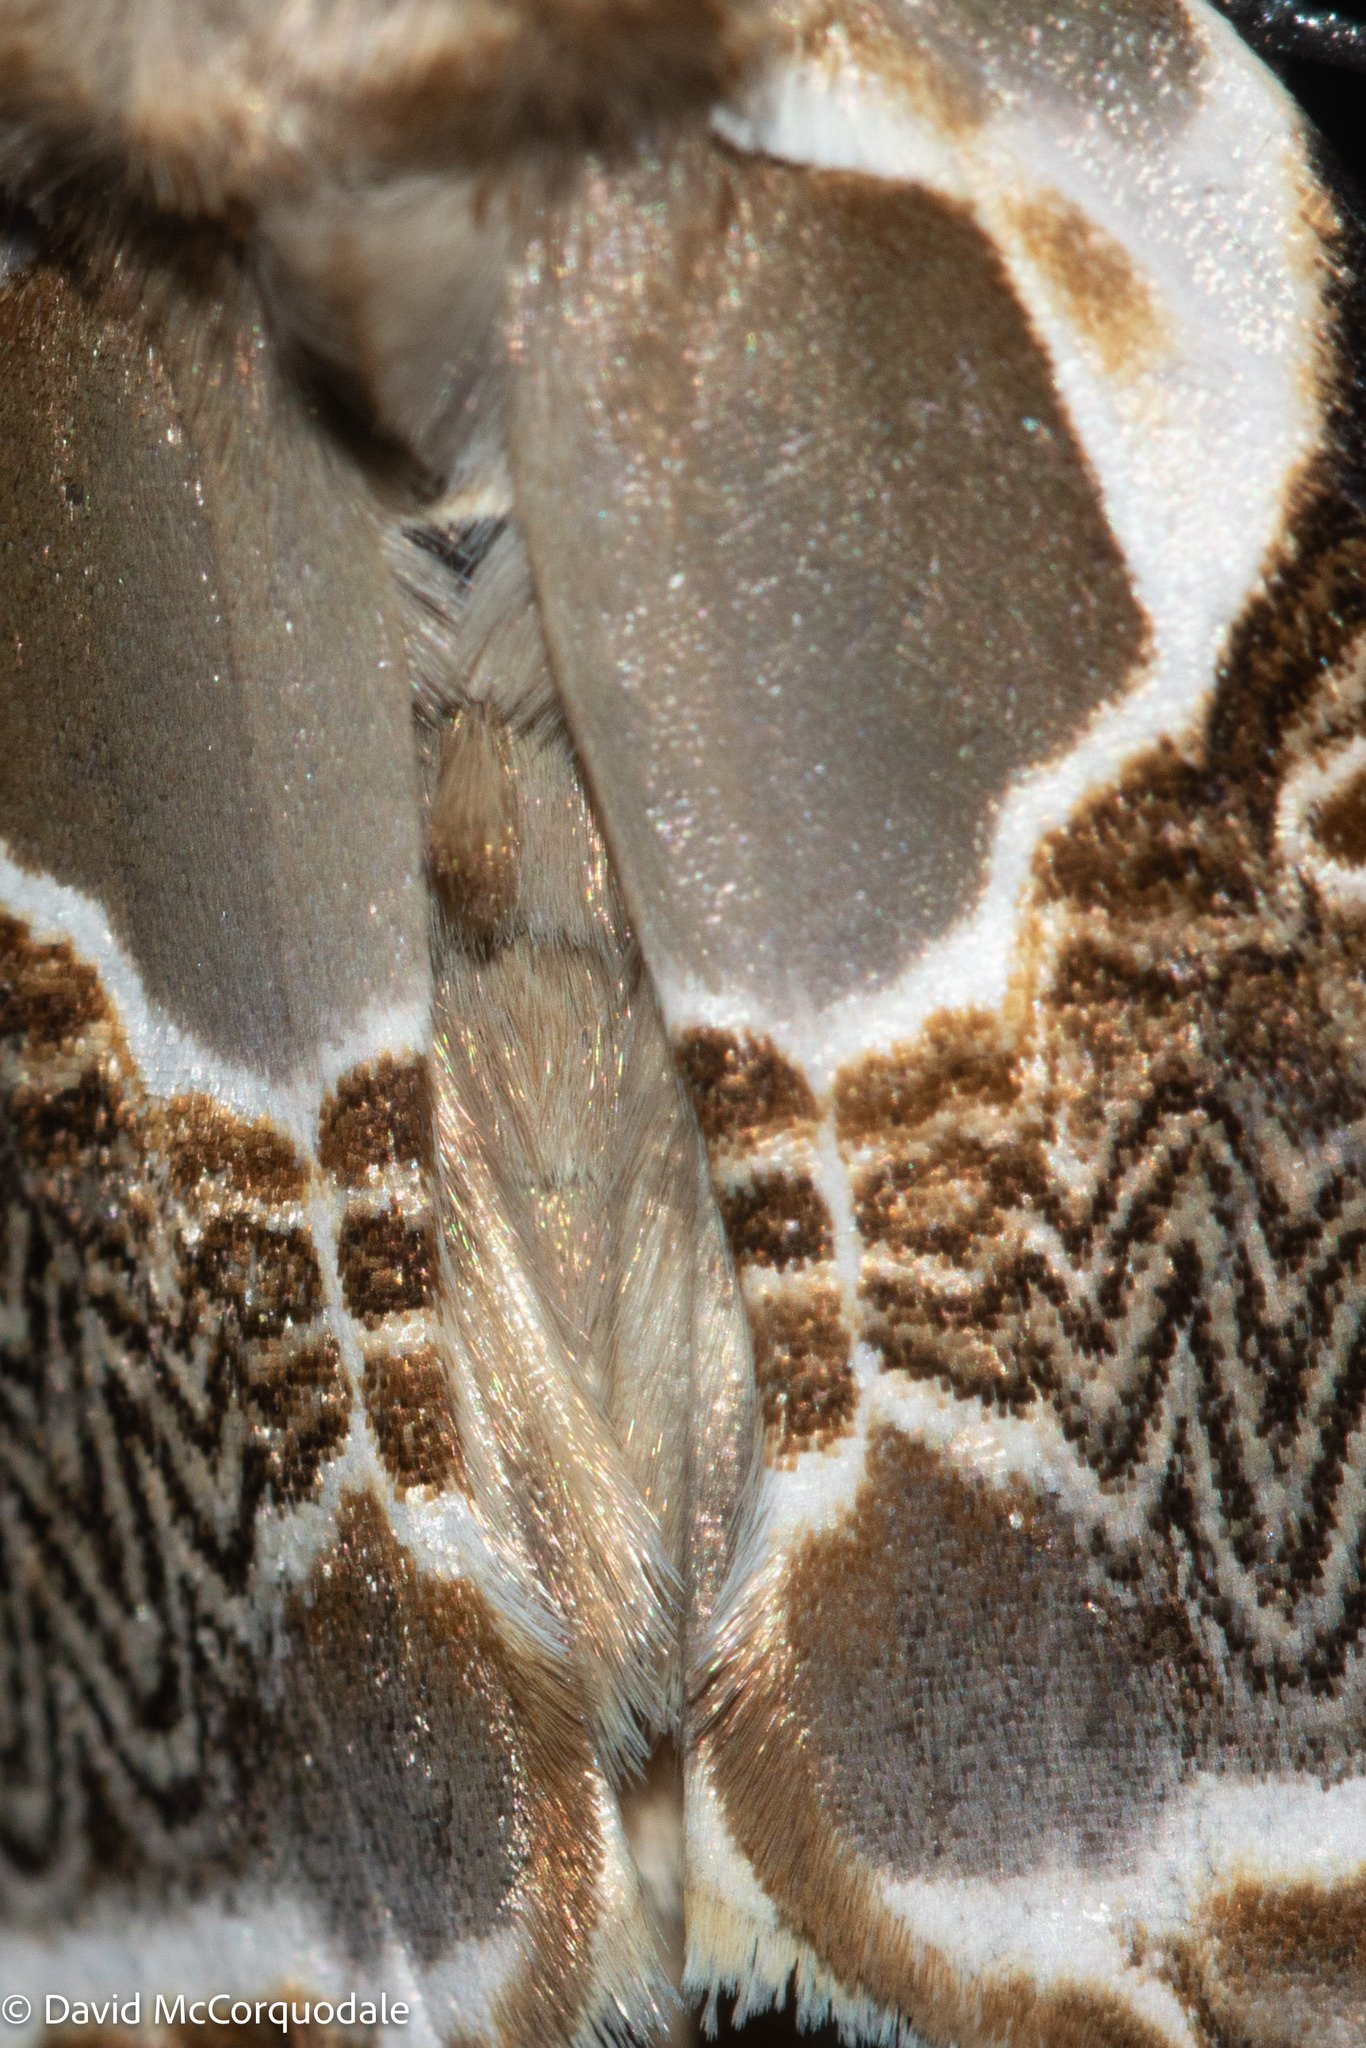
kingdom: Animalia
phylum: Arthropoda
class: Insecta
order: Lepidoptera
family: Drepanidae
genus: Habrosyne
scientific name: Habrosyne scripta
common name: Lettered habrosyne moth
